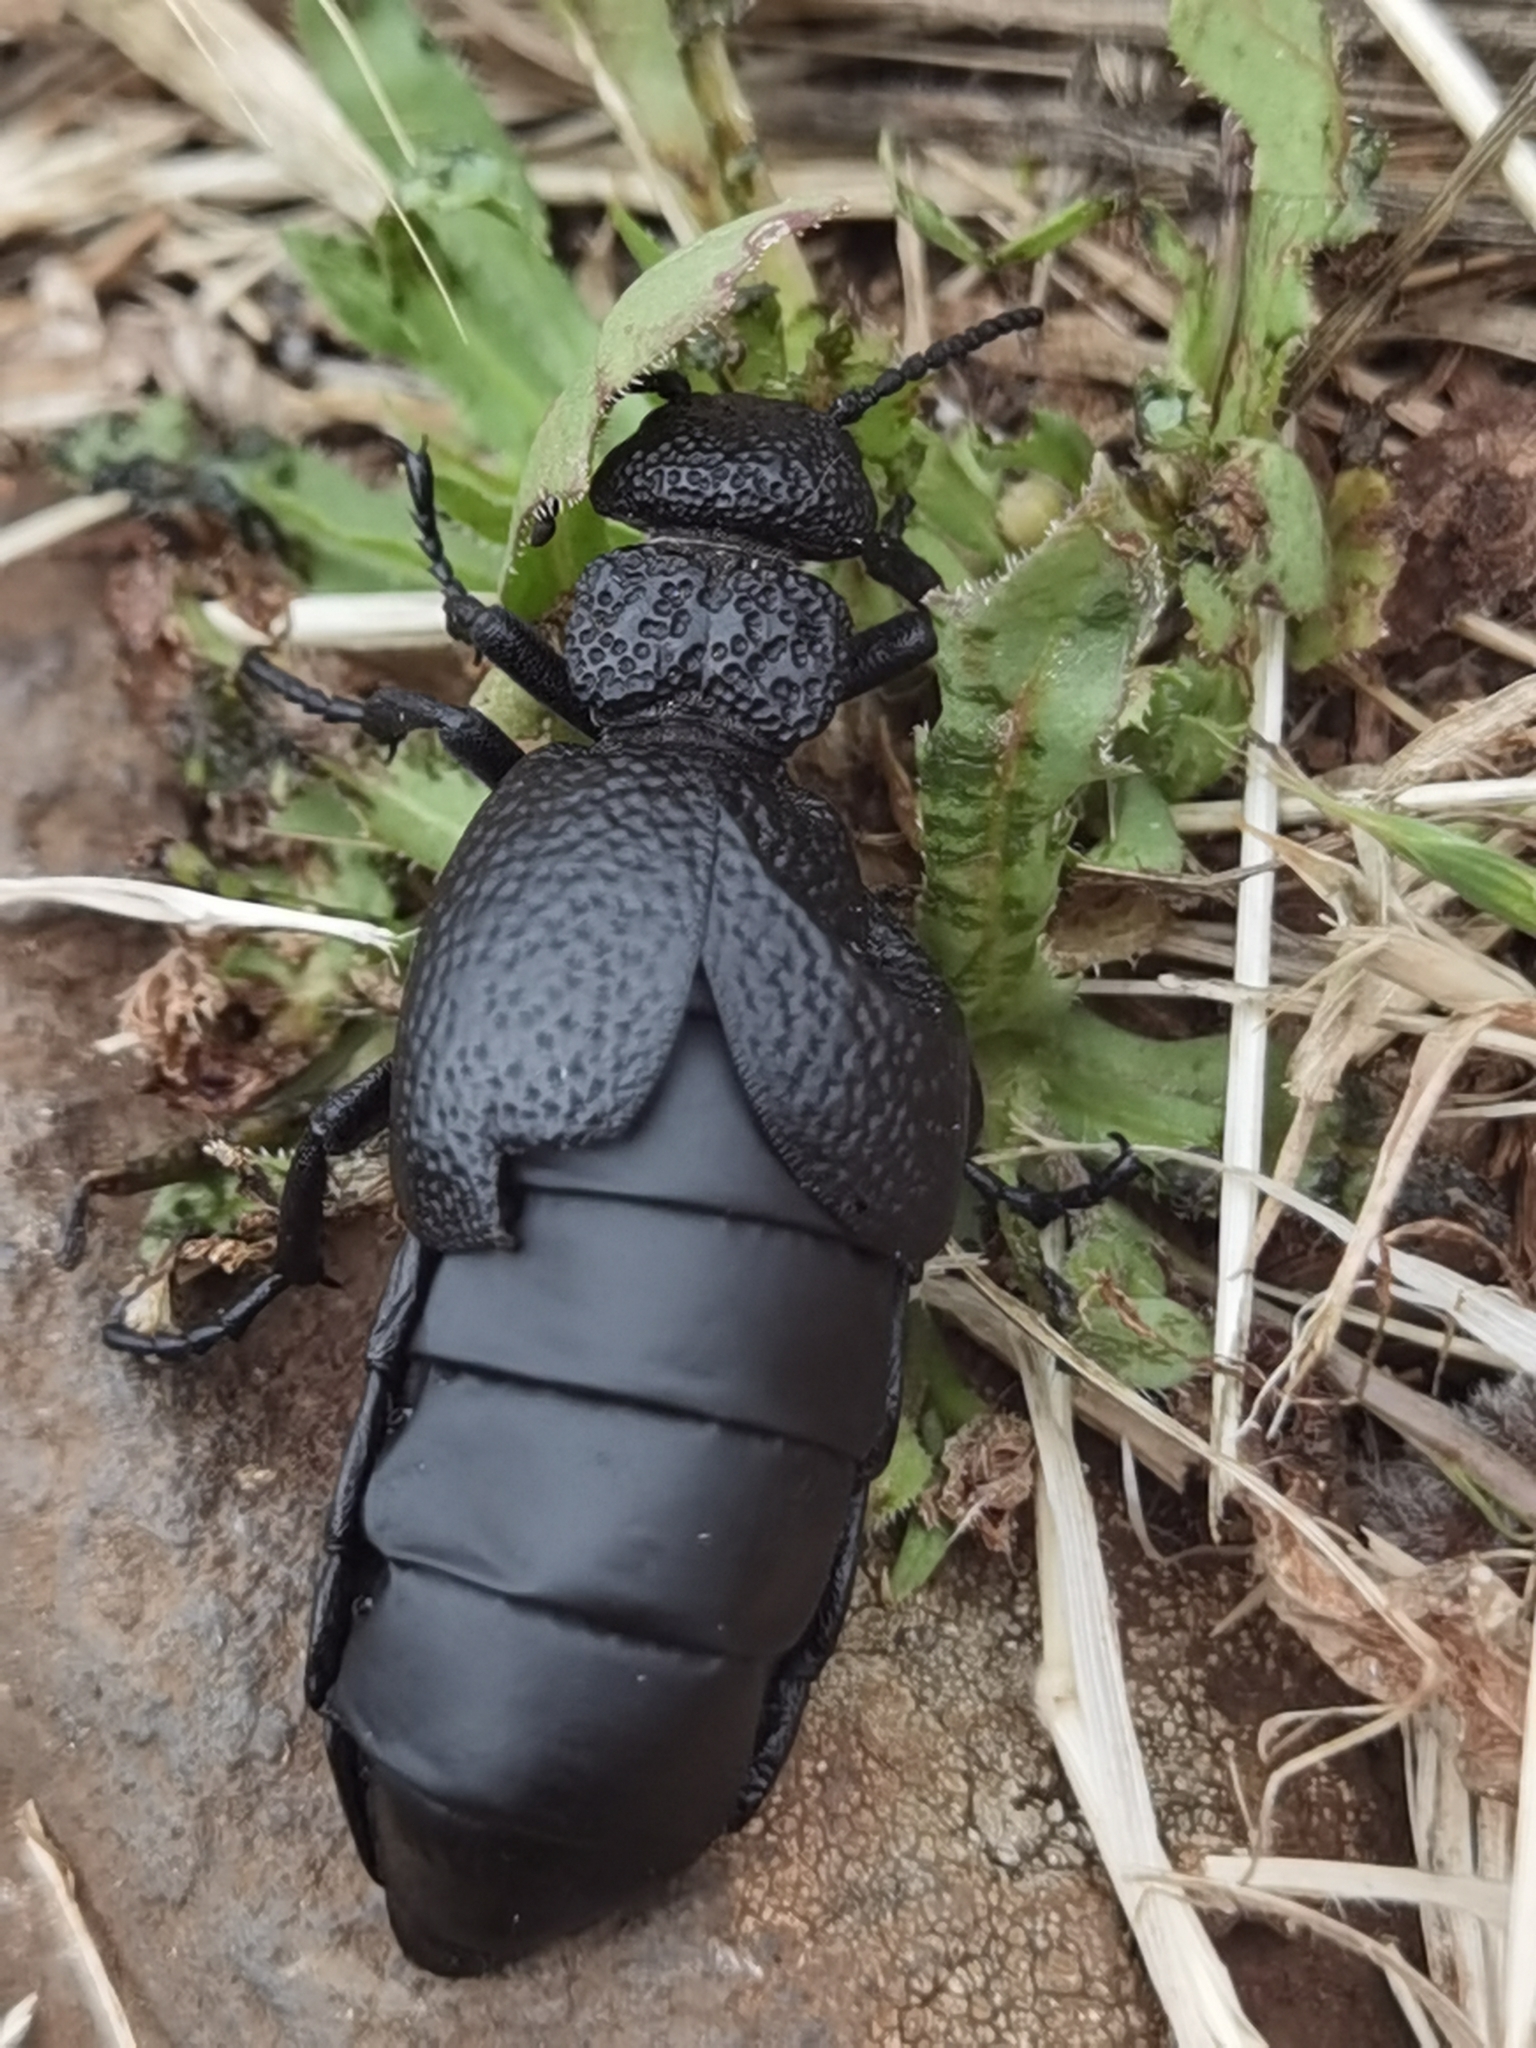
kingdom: Animalia
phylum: Arthropoda
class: Insecta
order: Coleoptera
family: Meloidae
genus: Meloe
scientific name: Meloe tuccius
